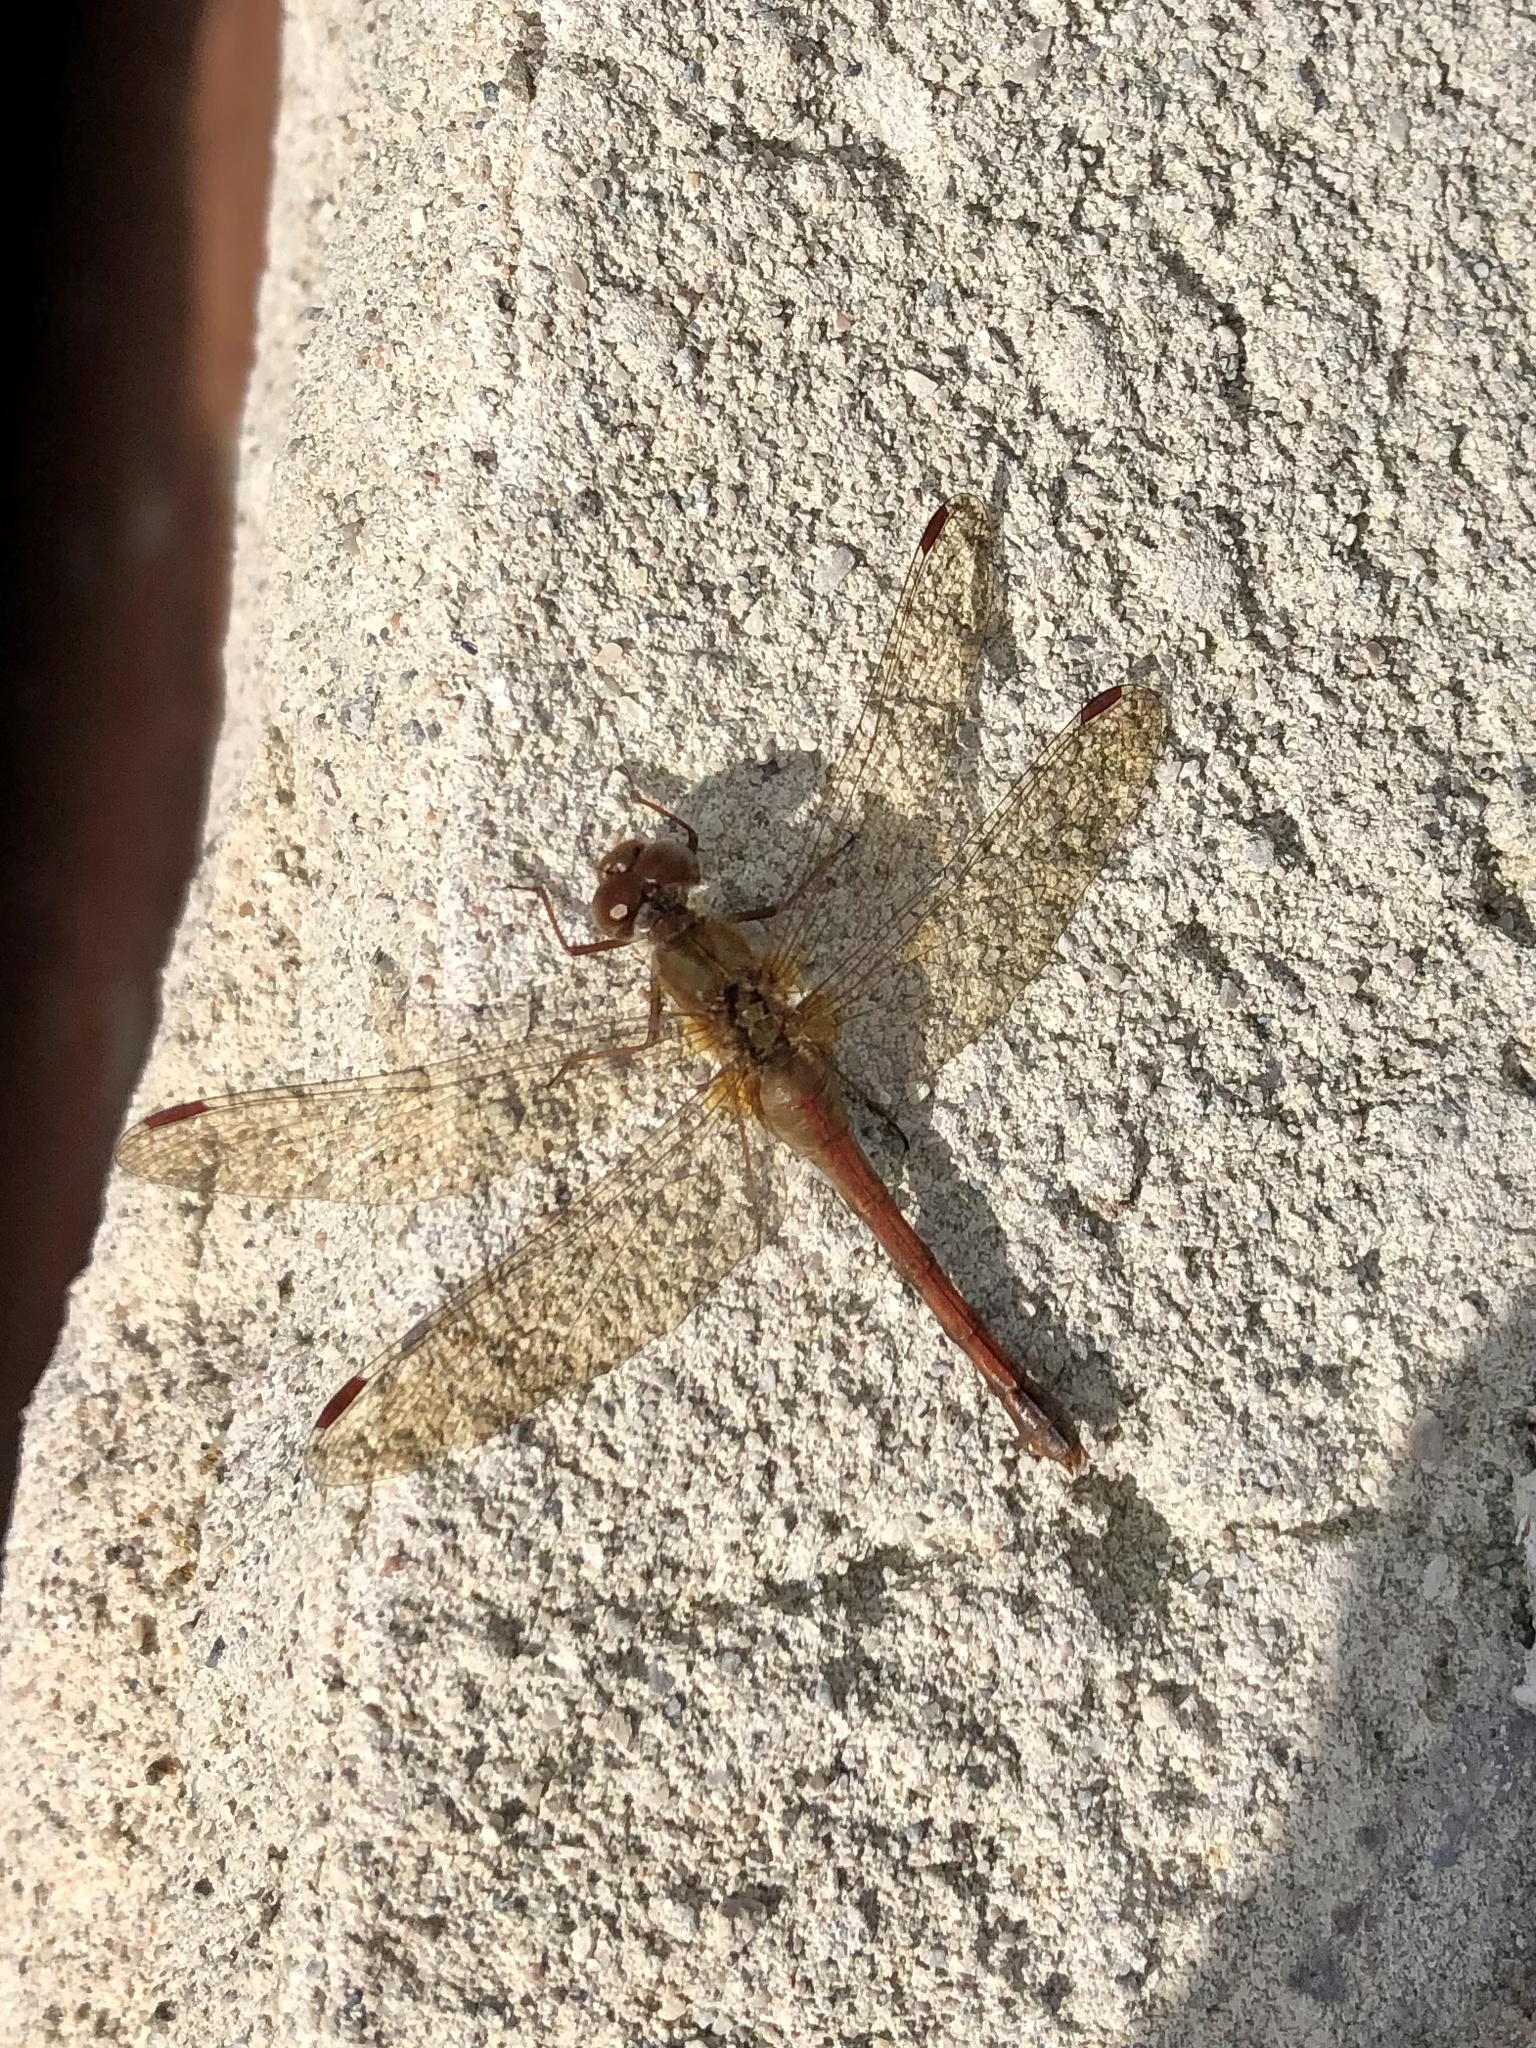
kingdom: Animalia
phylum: Arthropoda
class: Insecta
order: Odonata
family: Libellulidae
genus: Sympetrum
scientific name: Sympetrum vicinum
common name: Autumn meadowhawk
